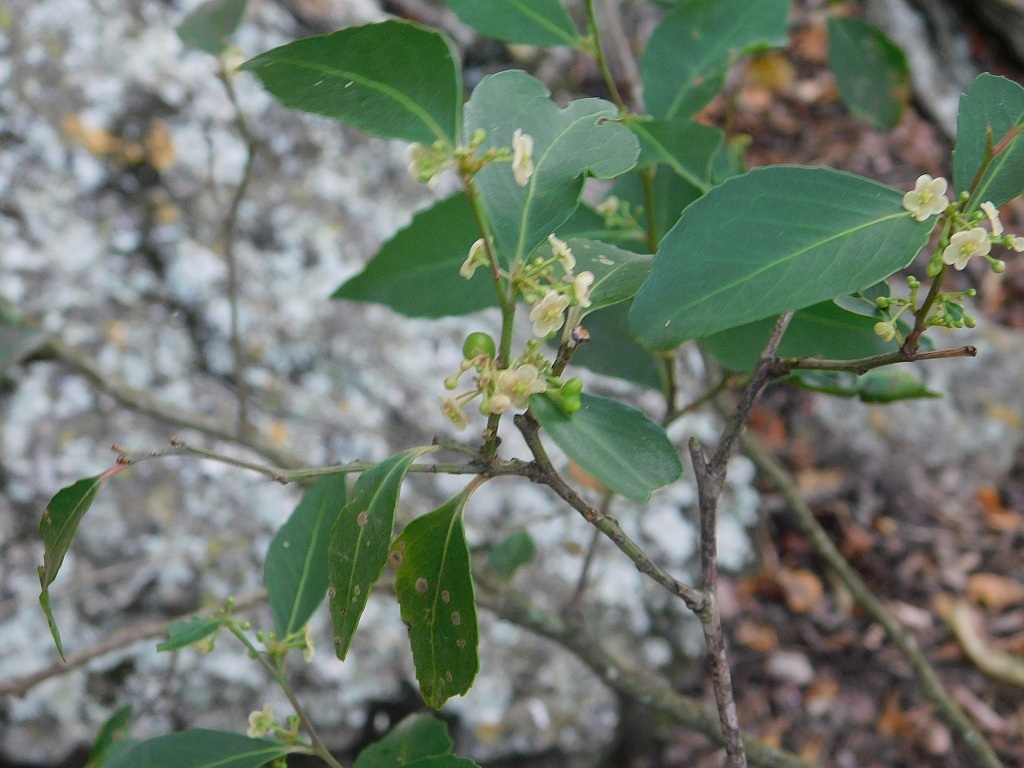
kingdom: Plantae
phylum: Tracheophyta
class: Magnoliopsida
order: Celastrales
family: Celastraceae
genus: Gymnosporia
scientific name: Gymnosporia acuminata
